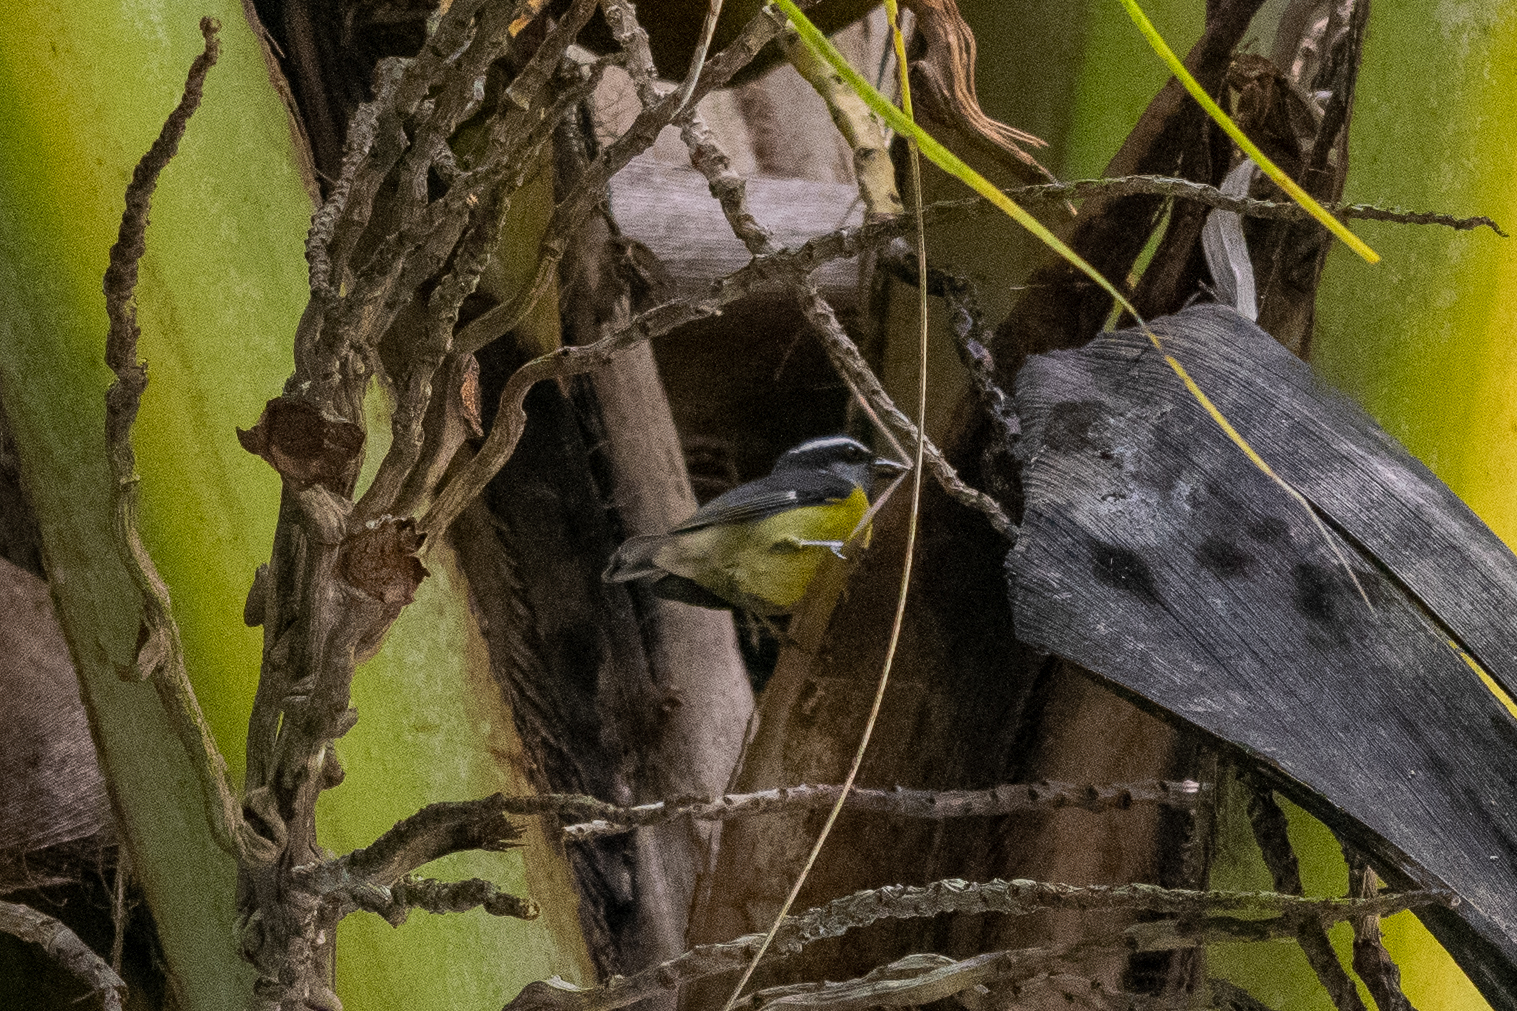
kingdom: Animalia
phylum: Chordata
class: Aves
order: Passeriformes
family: Thraupidae
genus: Coereba
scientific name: Coereba flaveola
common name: Bananaquit
